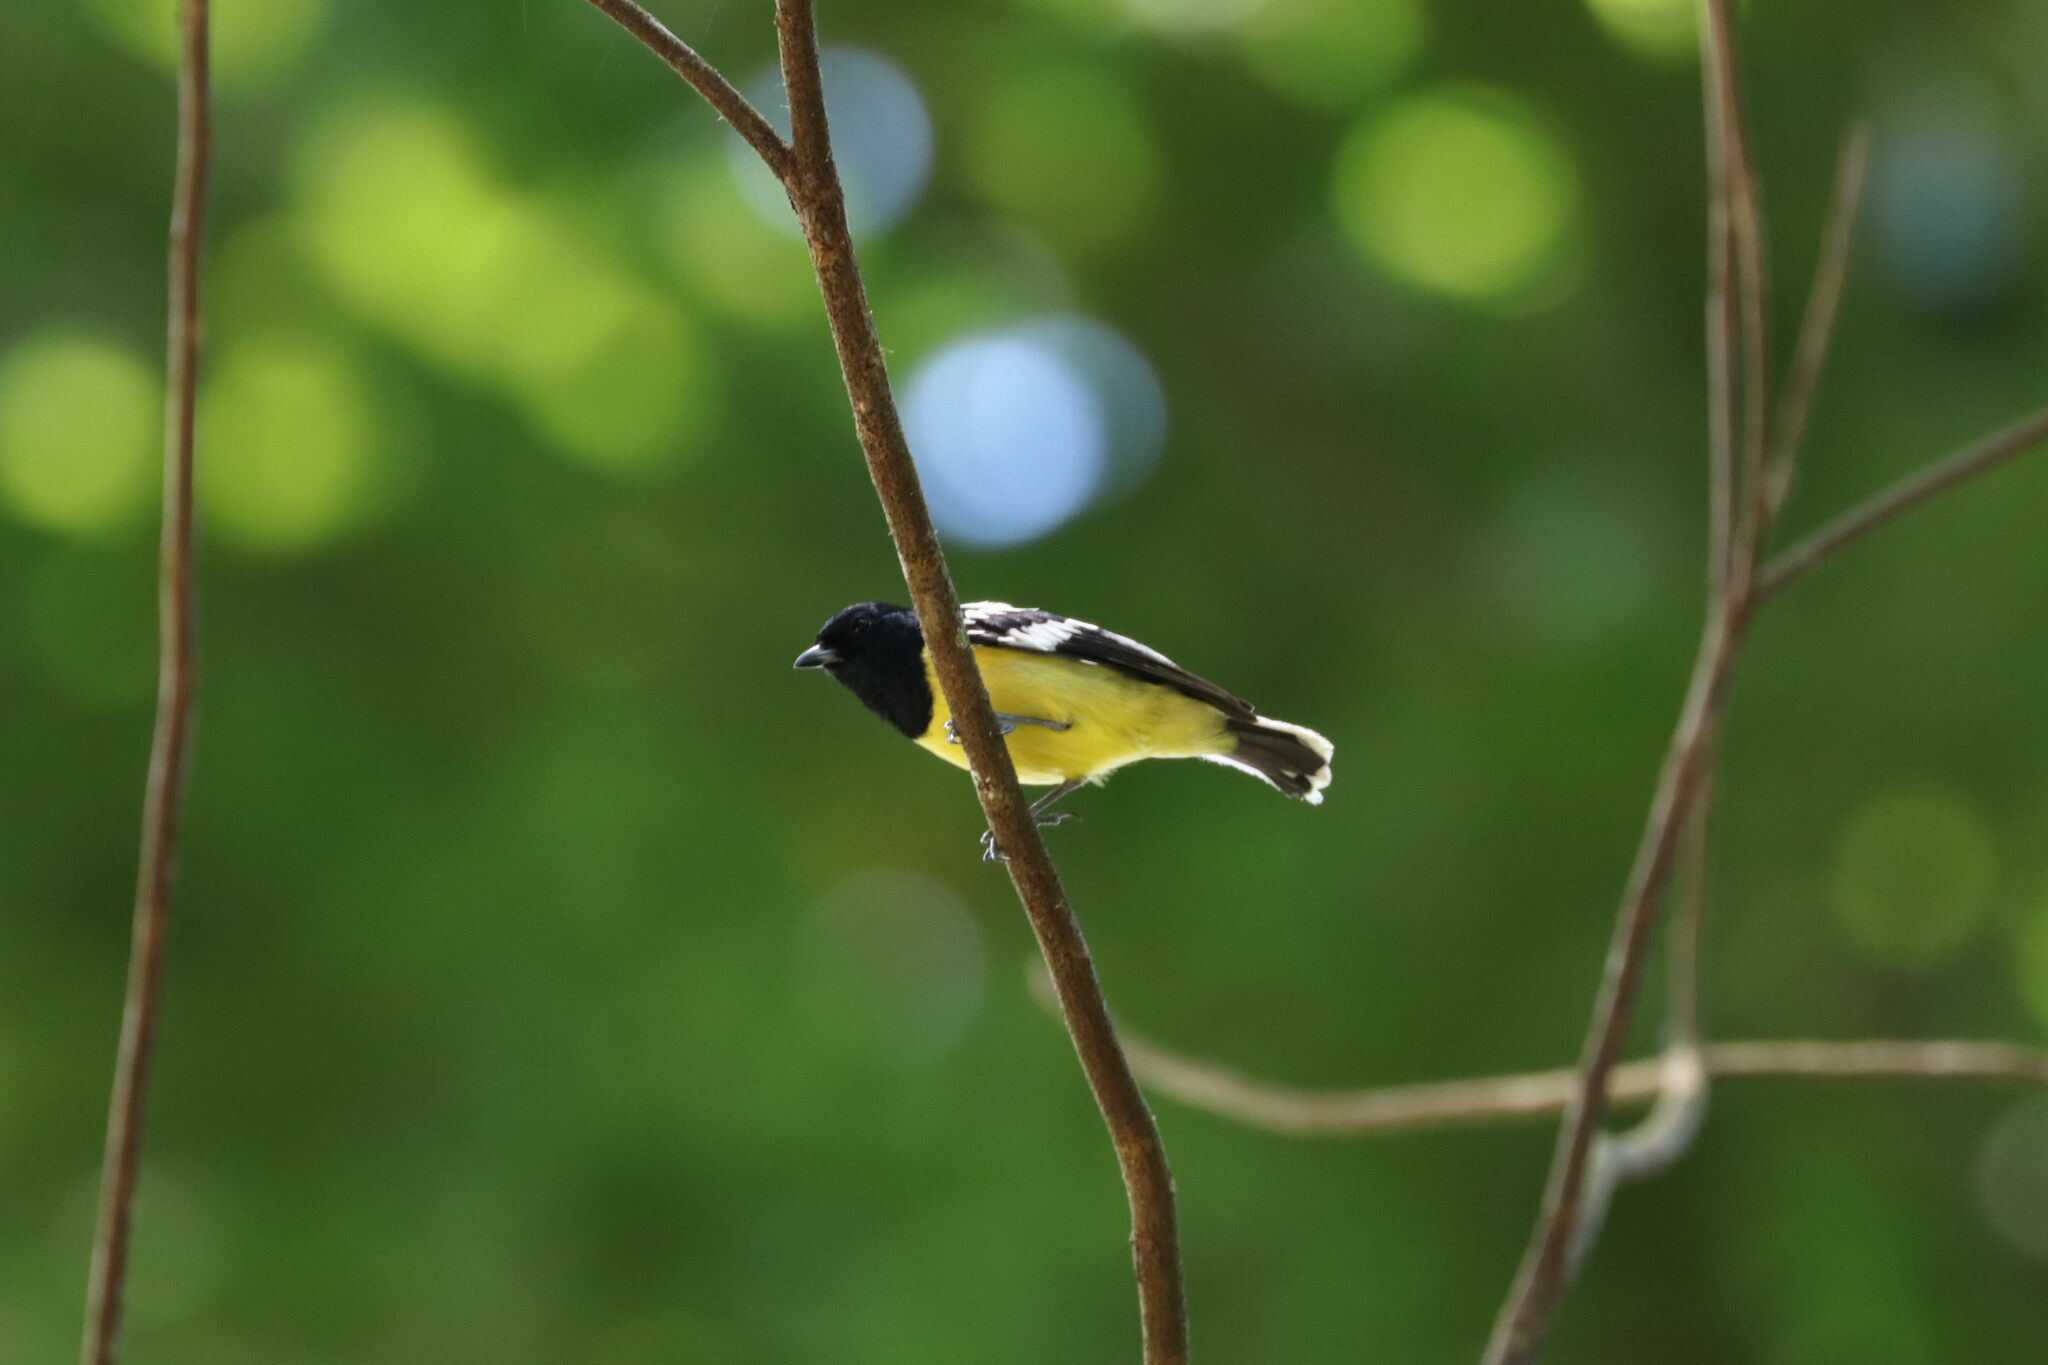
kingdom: Animalia
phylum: Chordata
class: Aves
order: Passeriformes
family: Paridae
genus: Periparus
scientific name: Periparus amabilis
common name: Palawan tit
